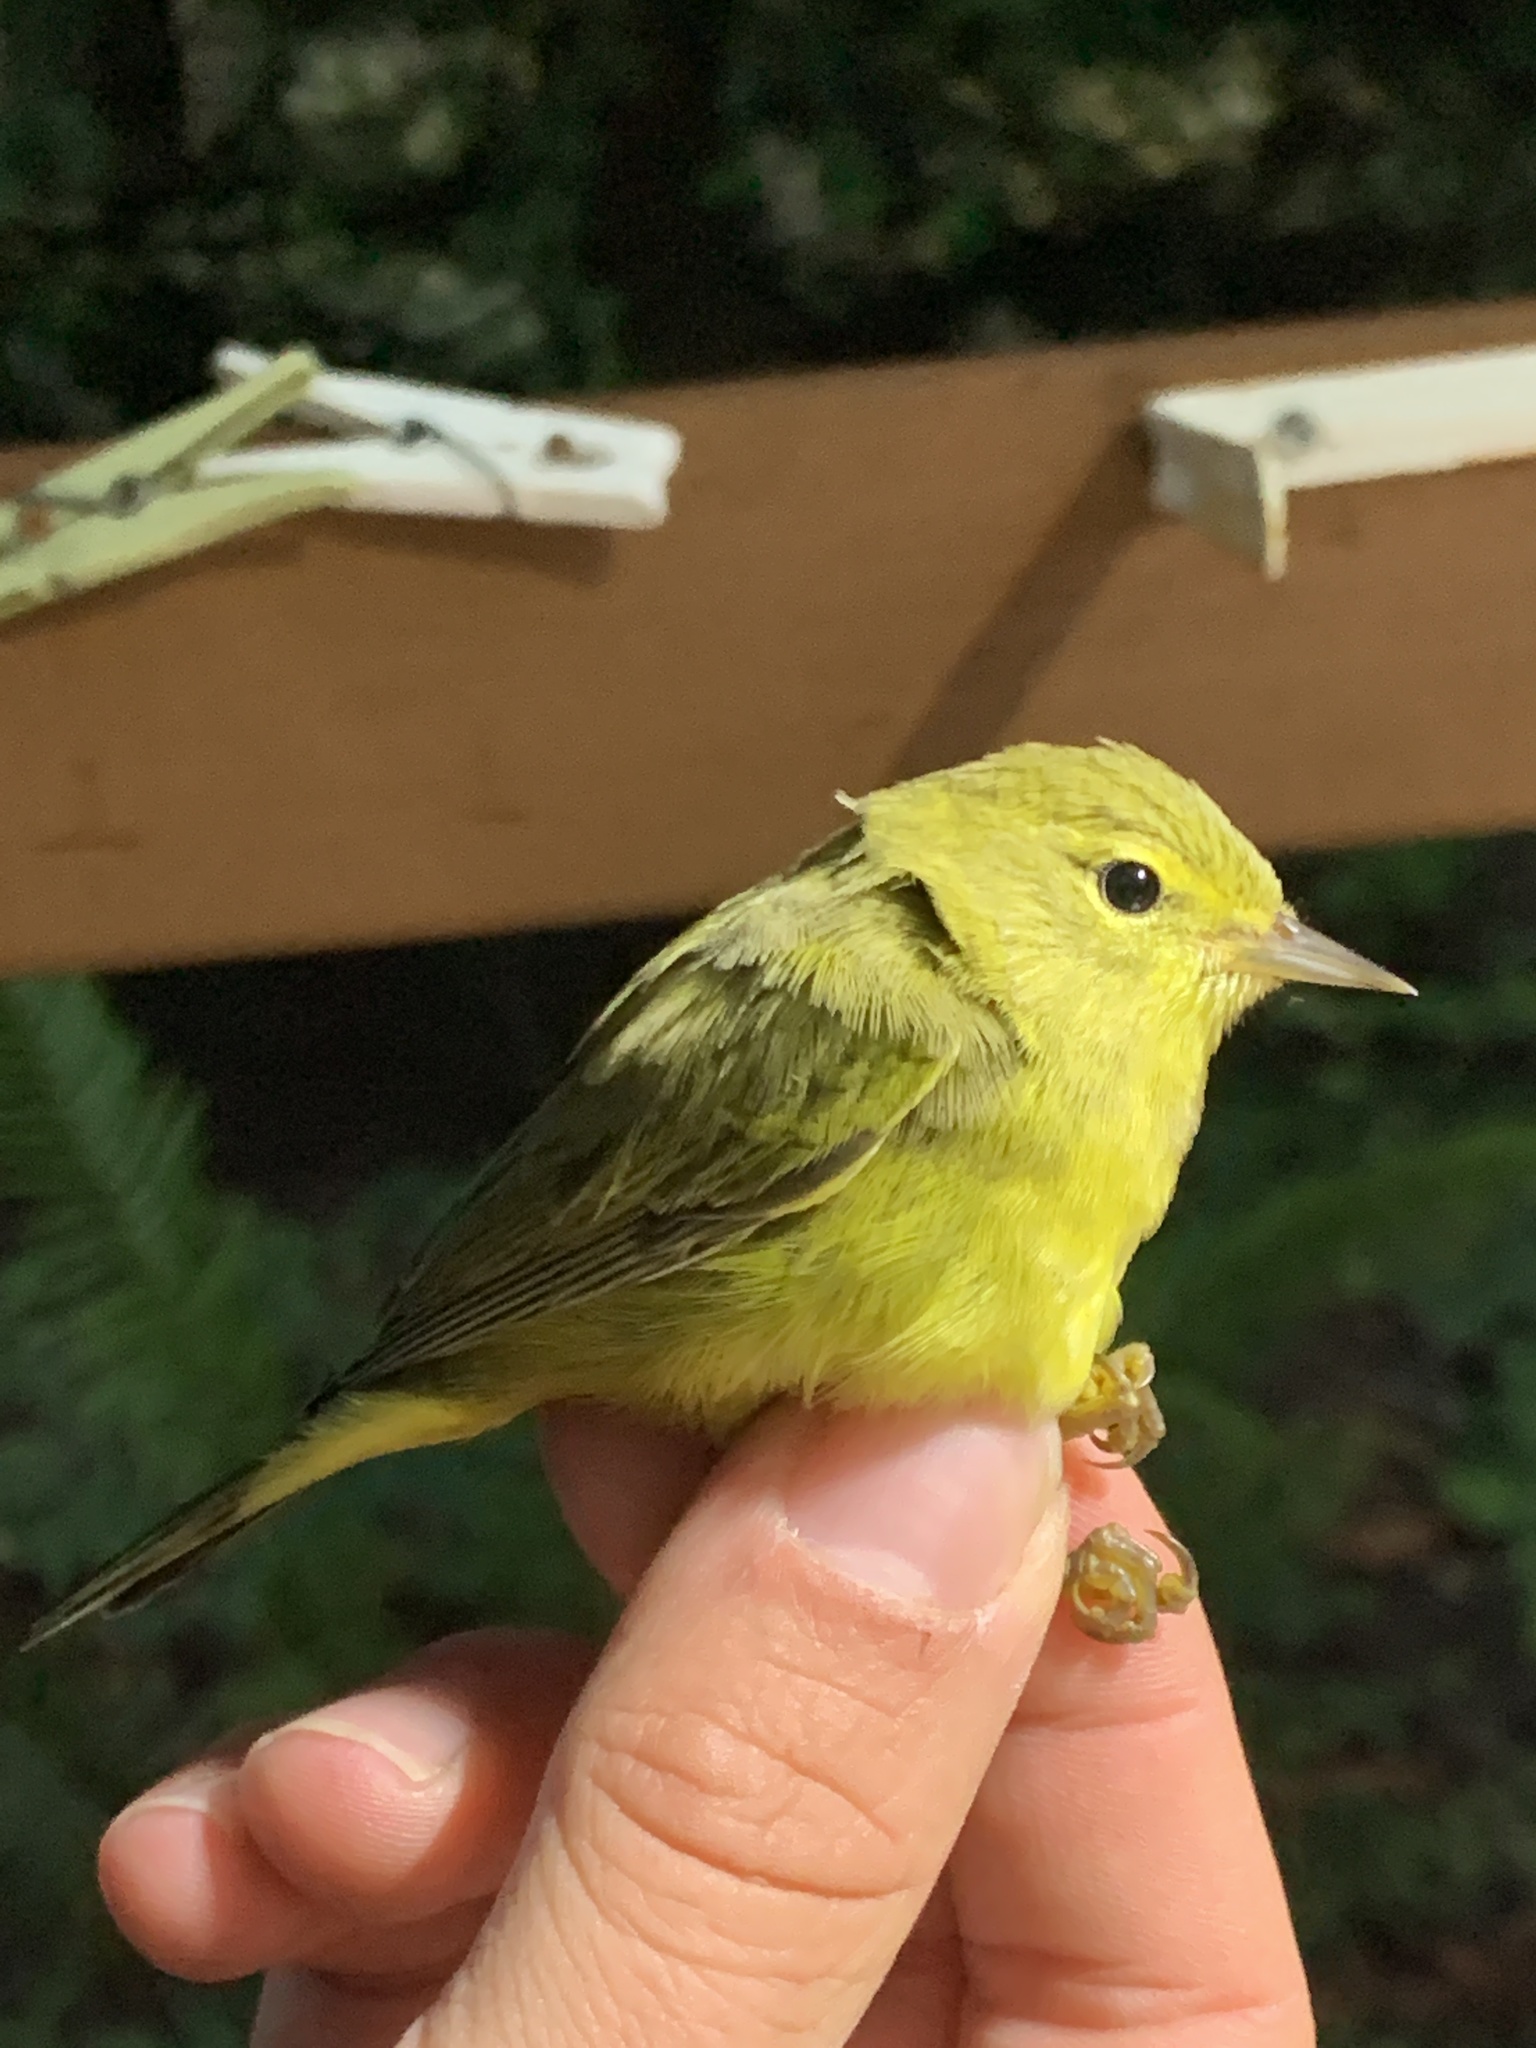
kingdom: Animalia
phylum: Chordata
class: Aves
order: Passeriformes
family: Parulidae
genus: Leiothlypis
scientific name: Leiothlypis celata
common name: Orange-crowned warbler
